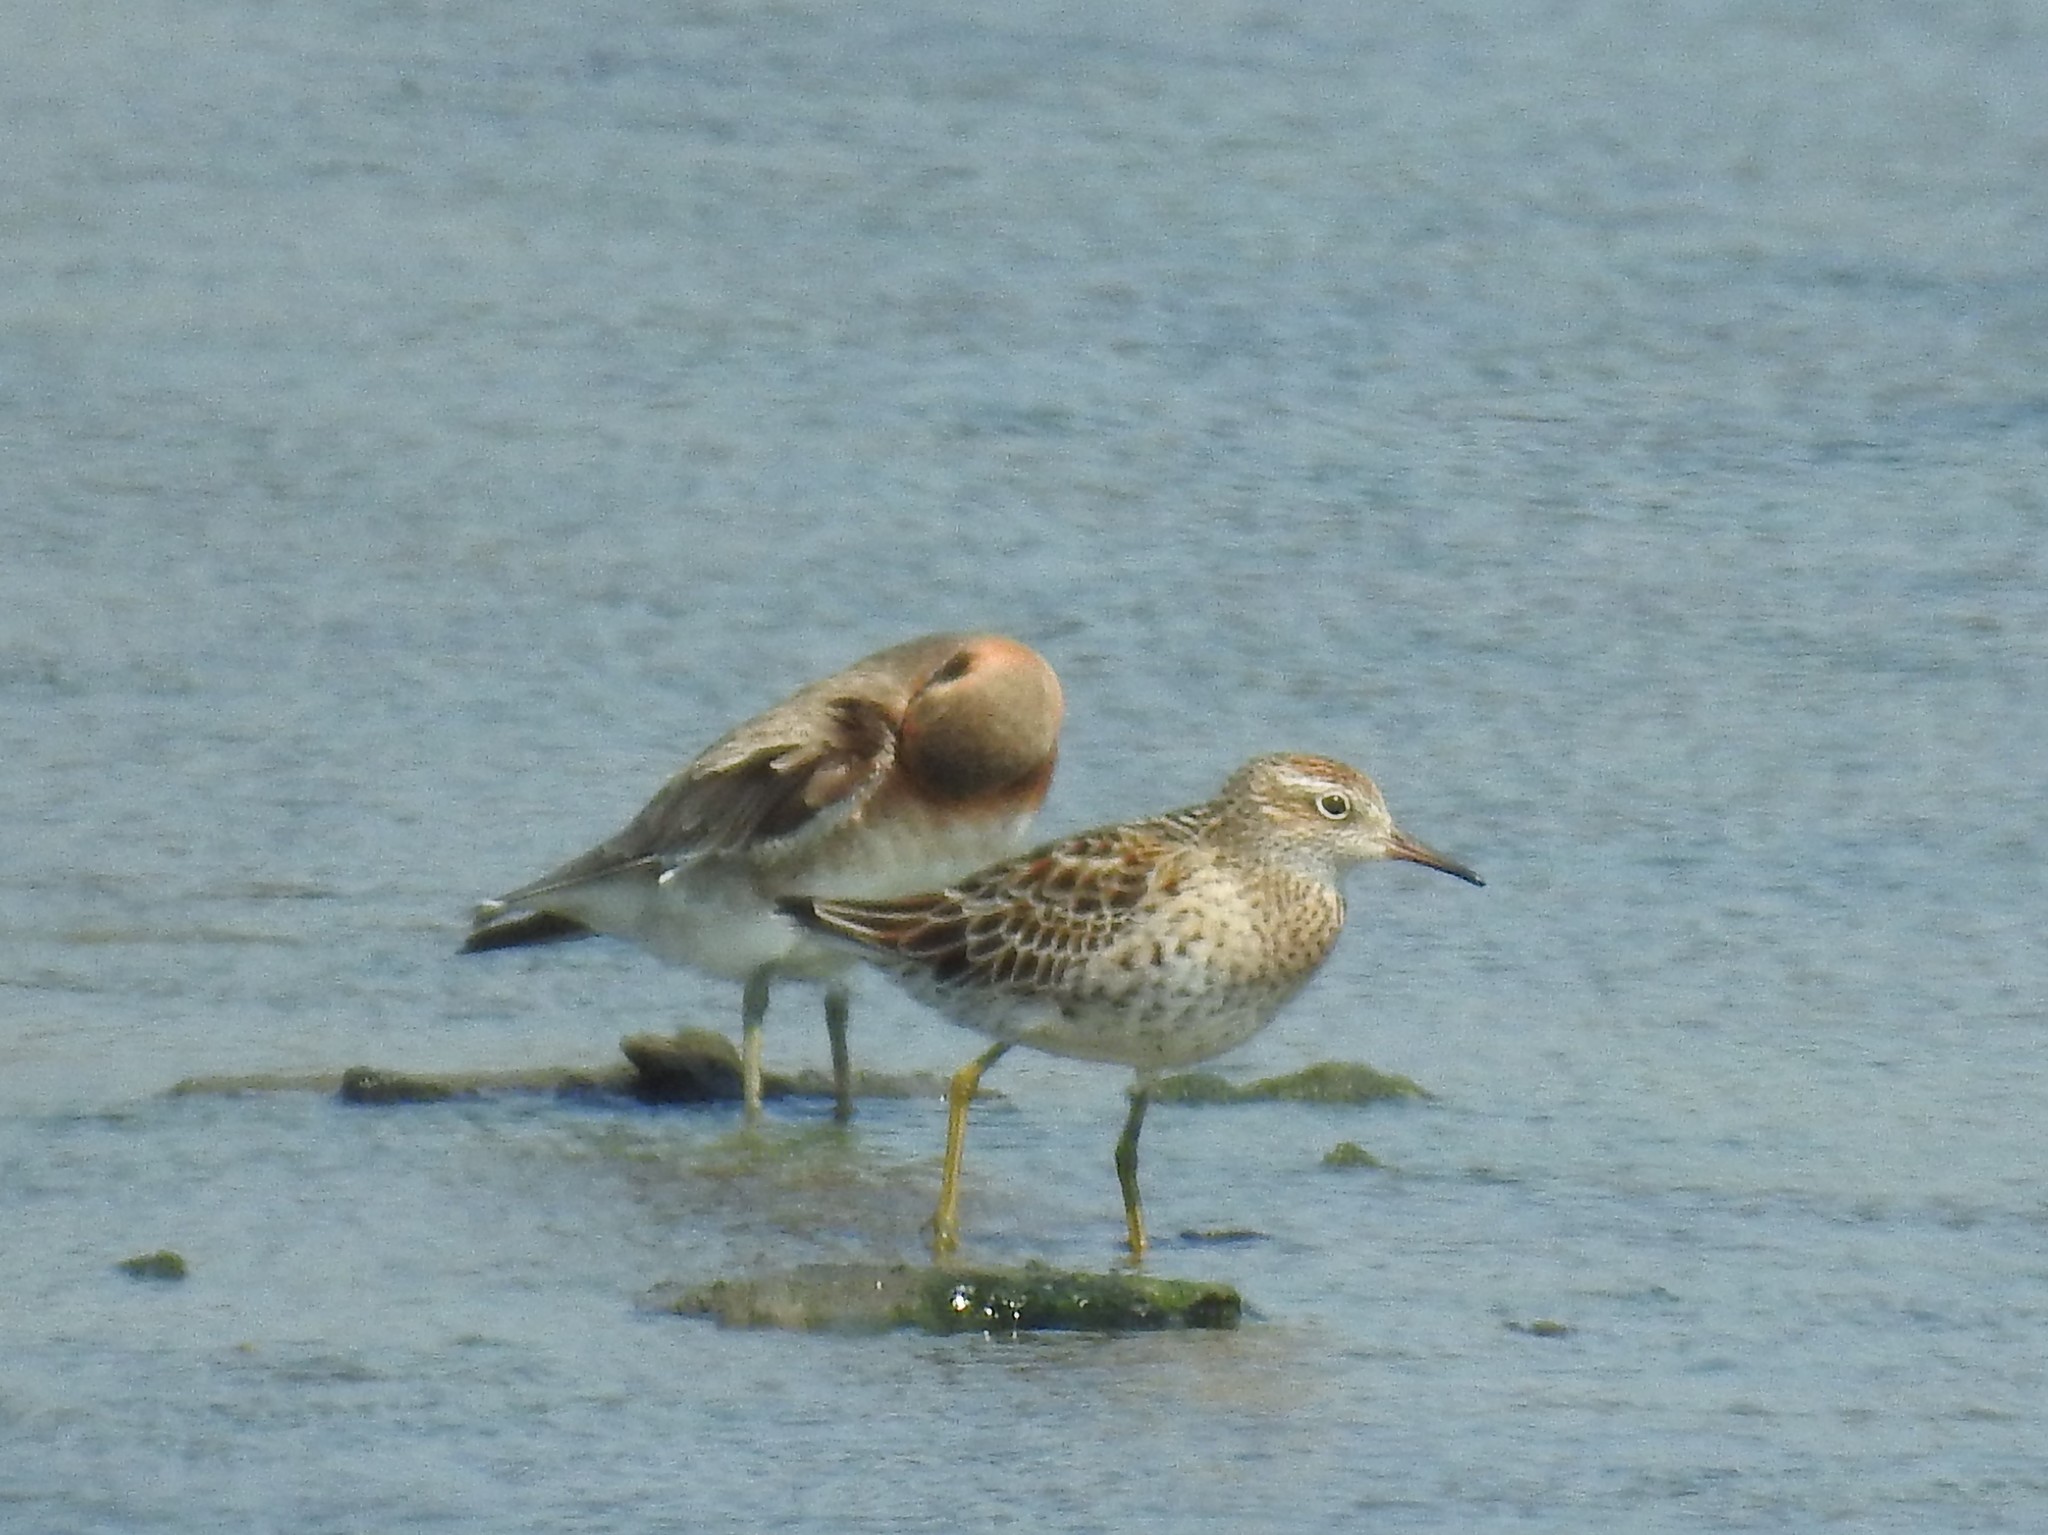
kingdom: Animalia
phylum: Chordata
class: Aves
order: Charadriiformes
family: Scolopacidae
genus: Calidris
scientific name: Calidris acuminata
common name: Sharp-tailed sandpiper
